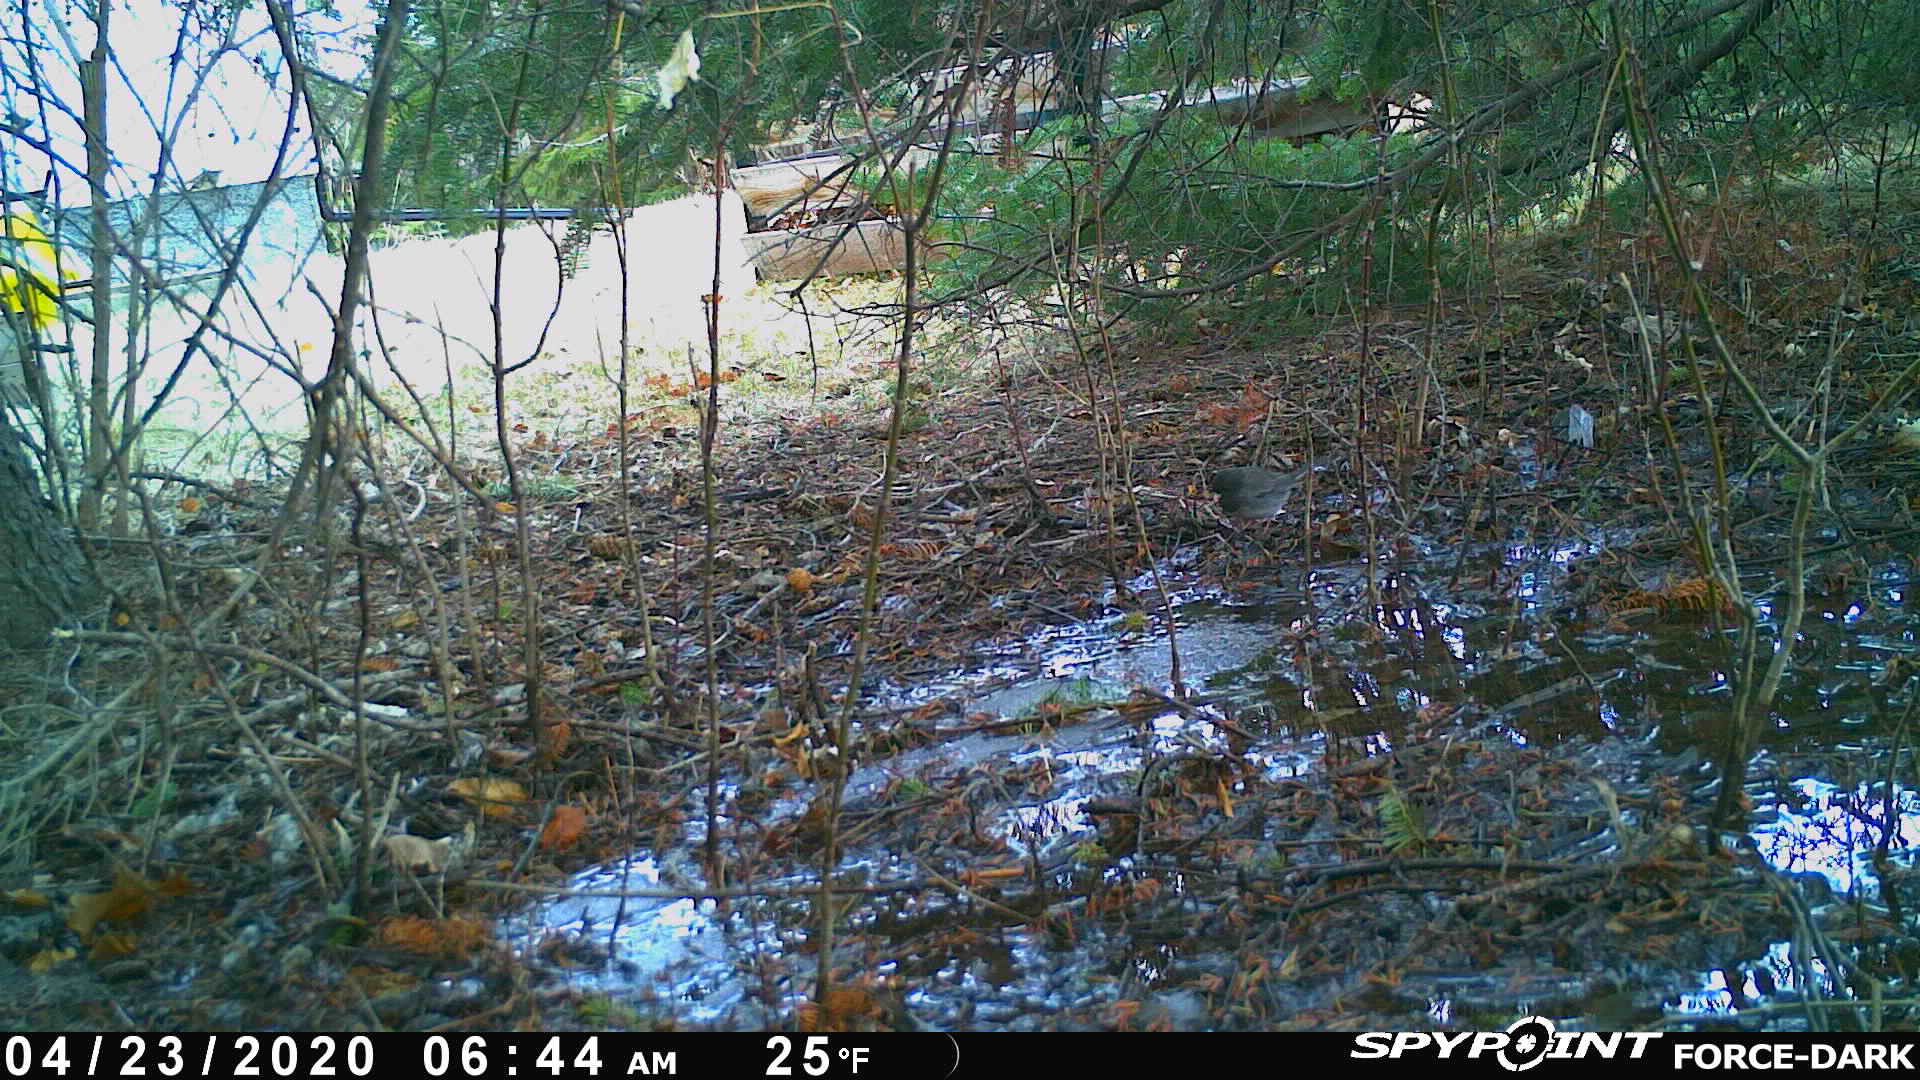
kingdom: Animalia
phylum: Chordata
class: Aves
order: Passeriformes
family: Passerellidae
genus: Junco
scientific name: Junco hyemalis
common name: Dark-eyed junco
